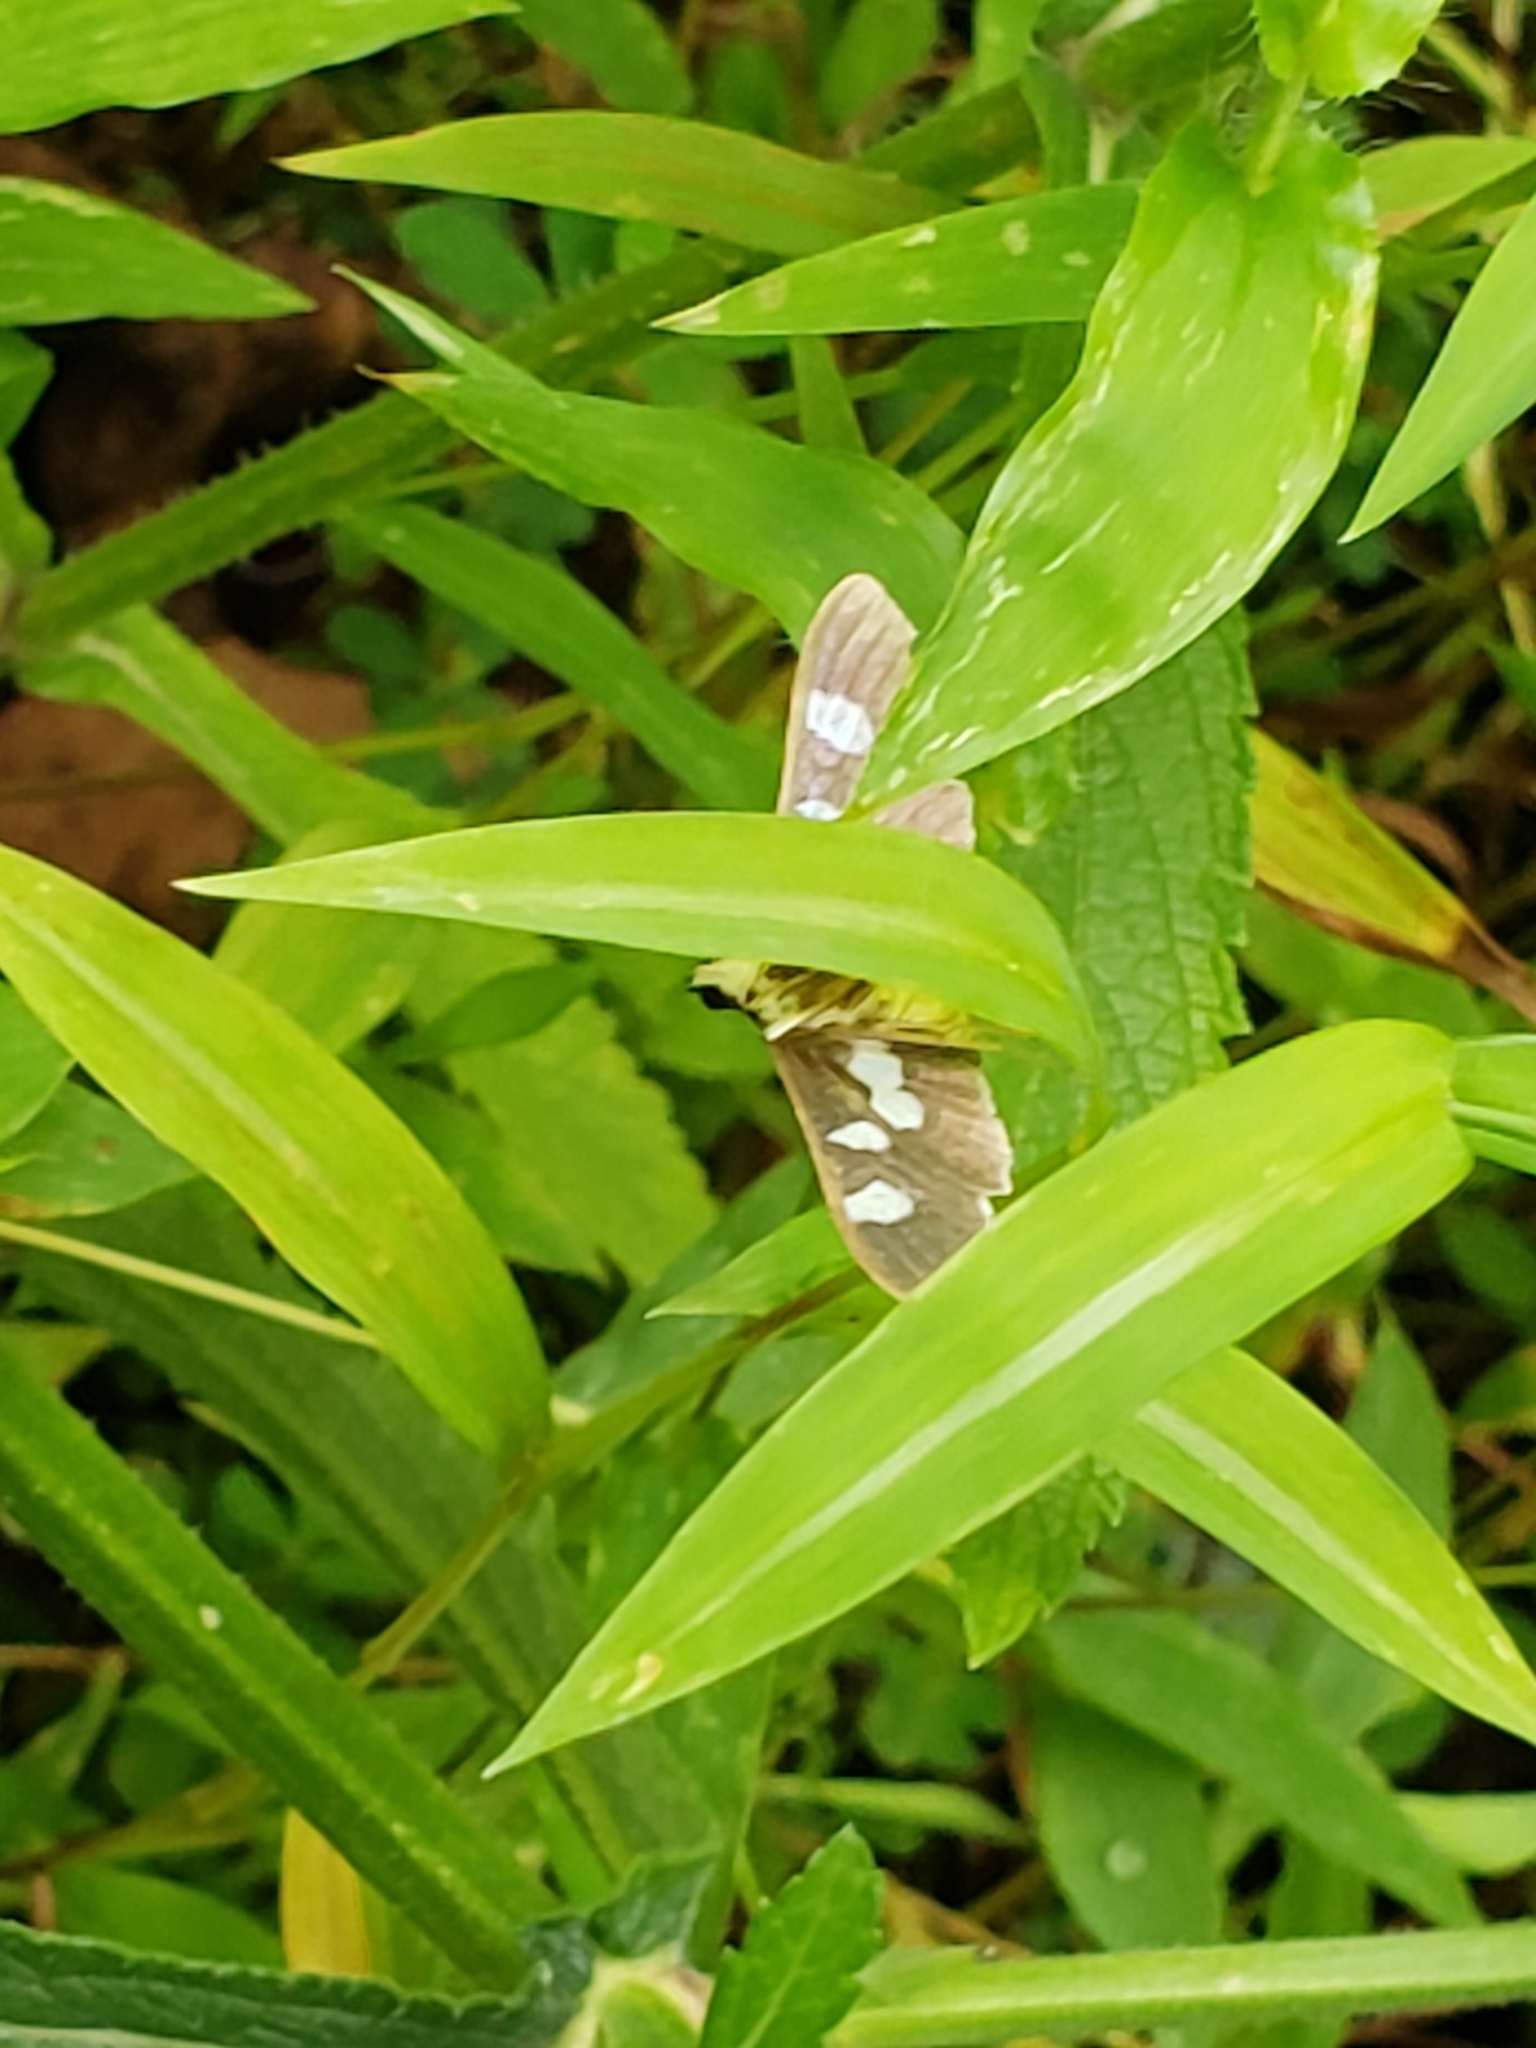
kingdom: Animalia
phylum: Arthropoda
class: Insecta
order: Lepidoptera
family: Crambidae
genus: Desmia
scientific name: Desmia
